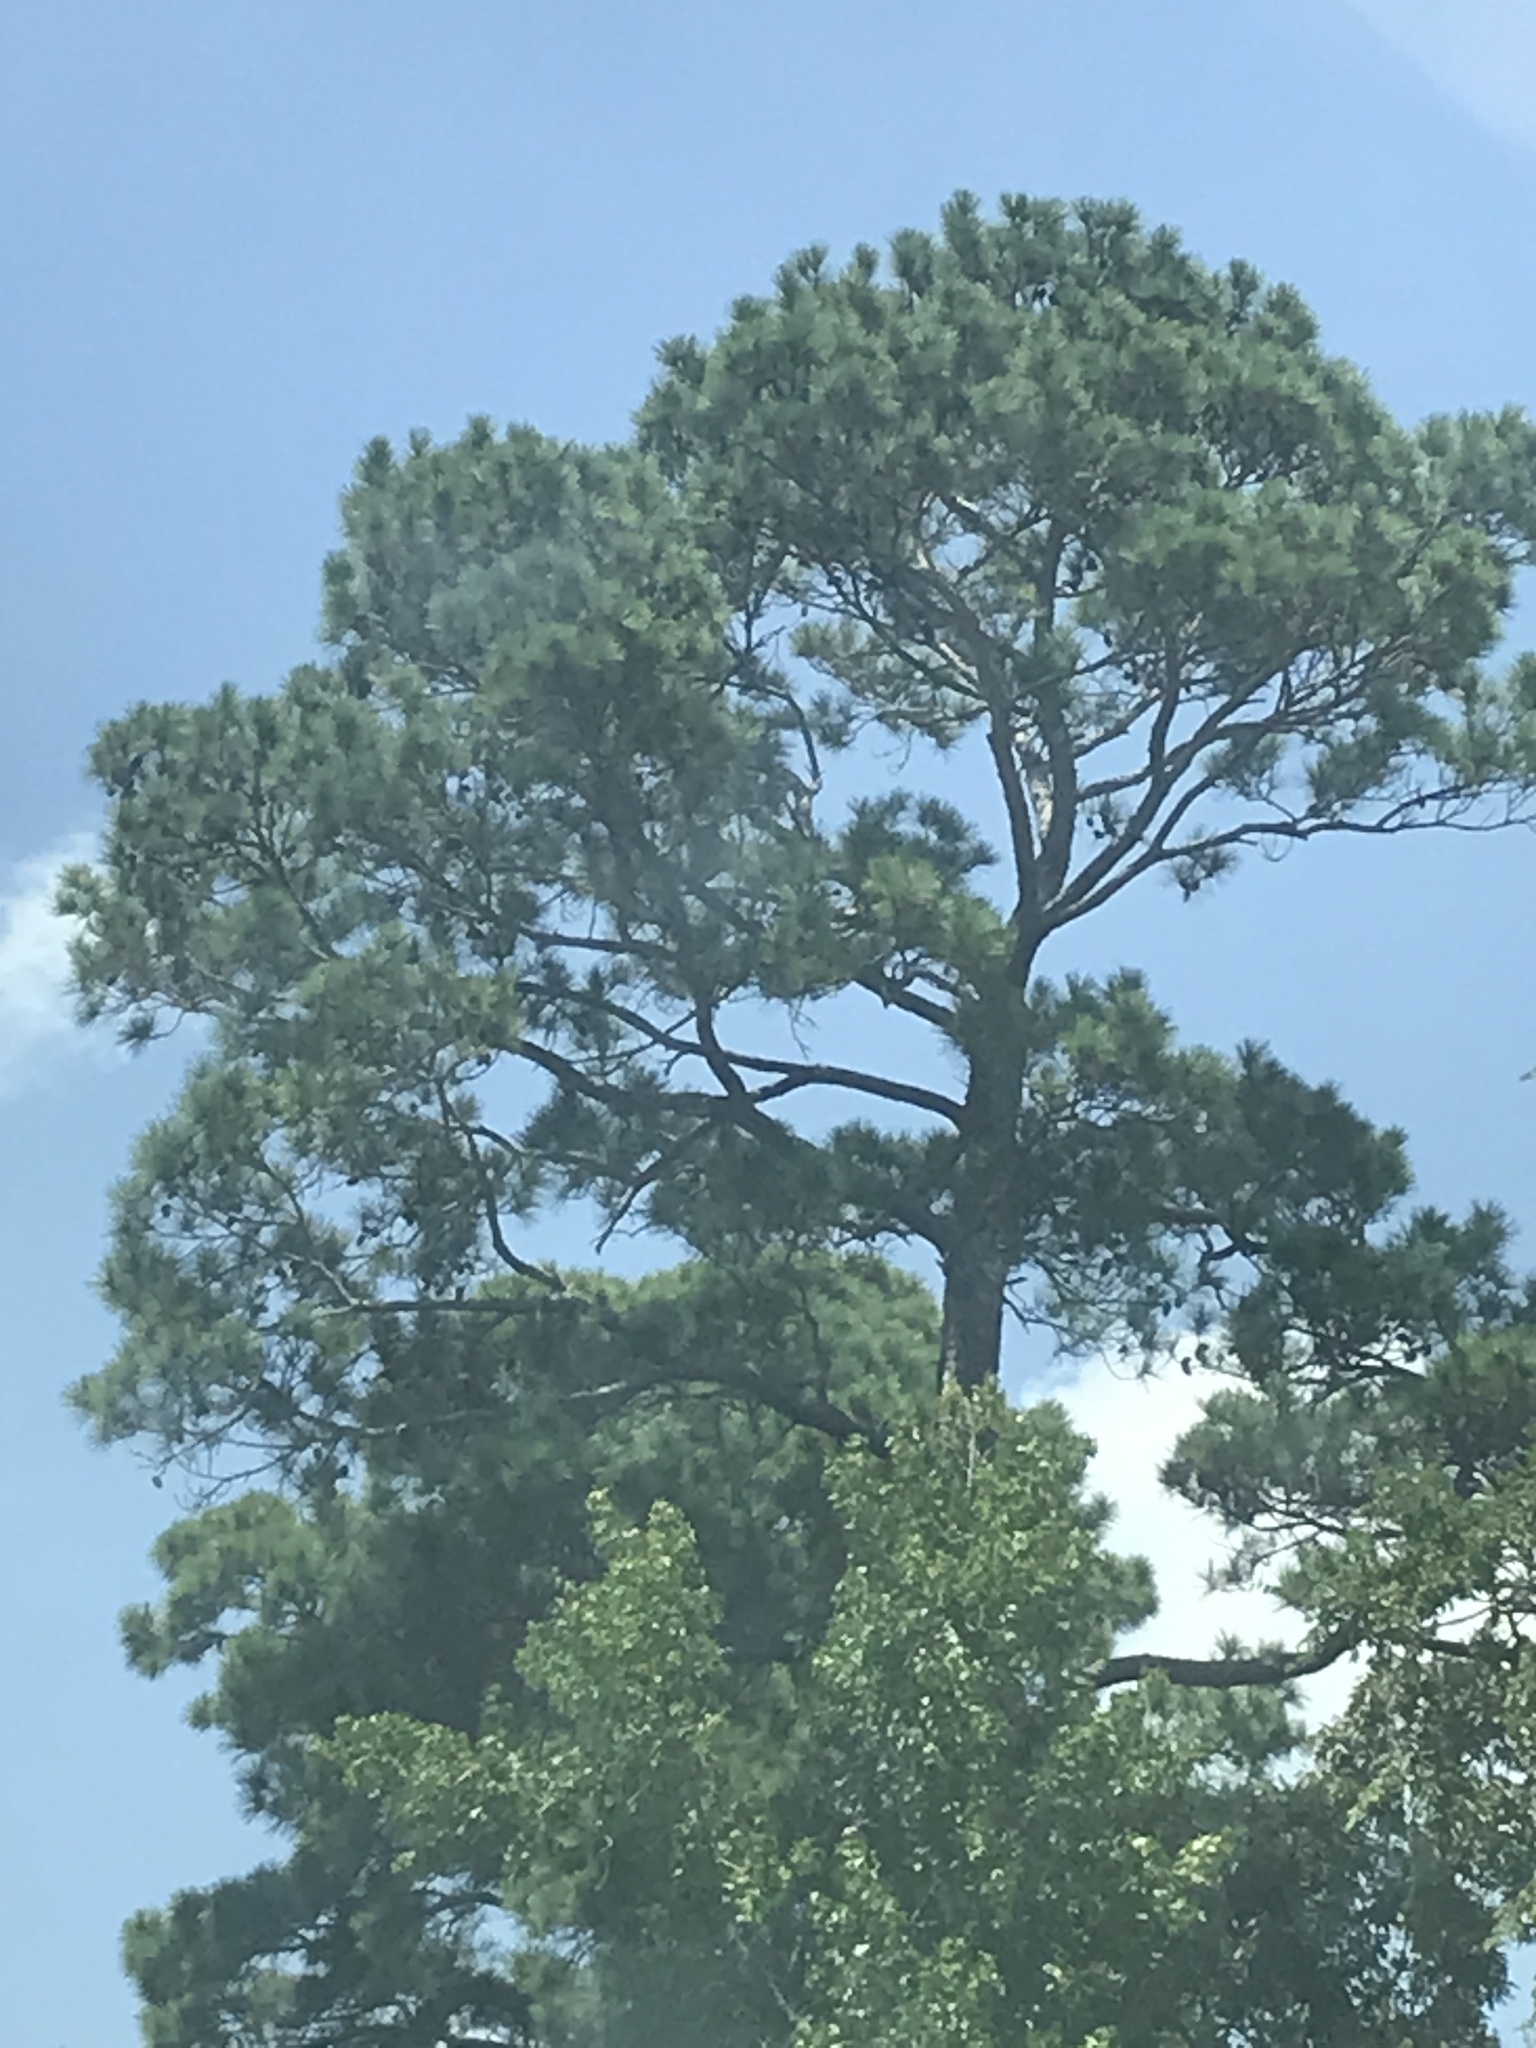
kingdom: Plantae
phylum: Tracheophyta
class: Pinopsida
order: Pinales
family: Pinaceae
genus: Pinus
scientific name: Pinus taeda
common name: Loblolly pine
